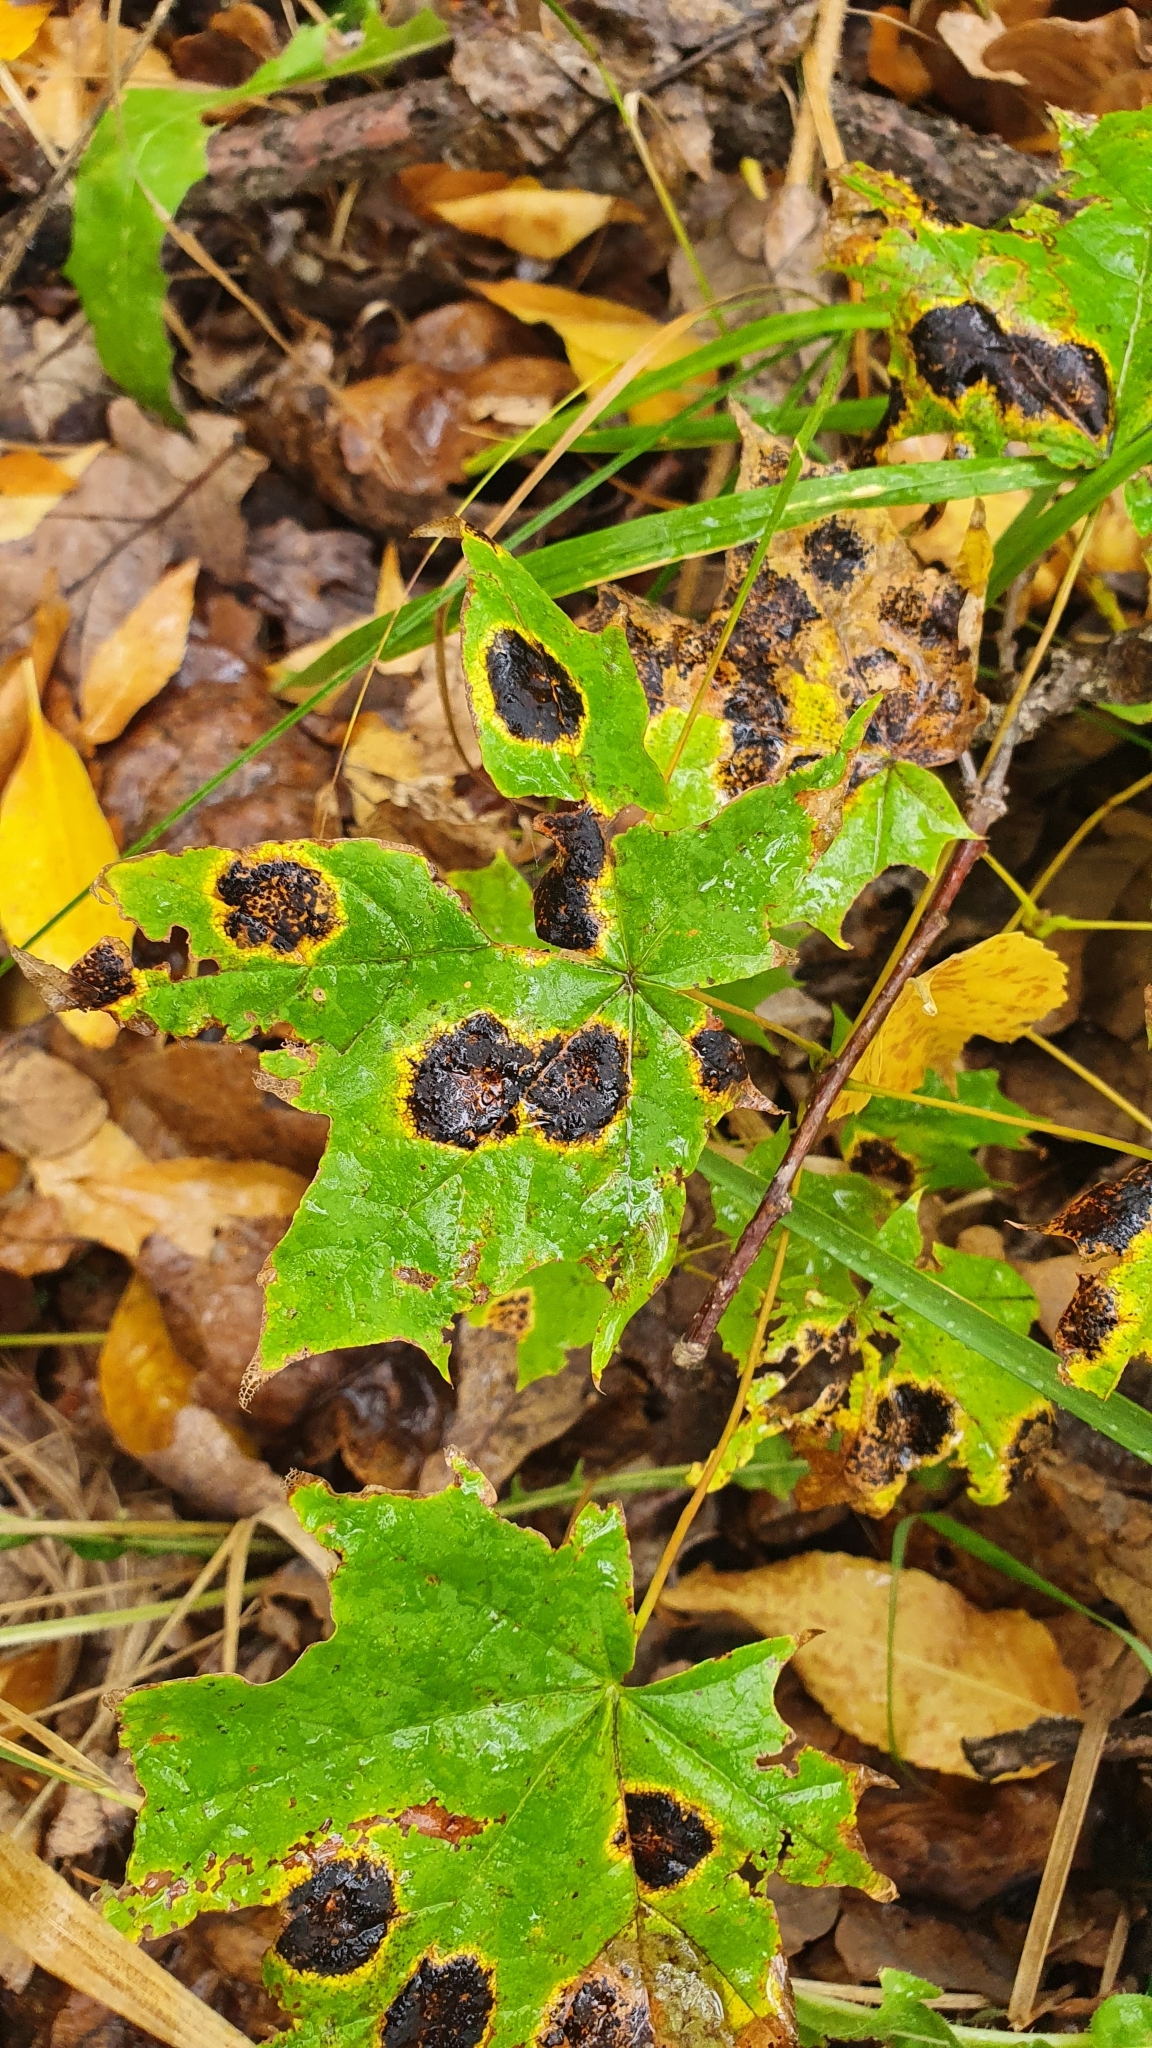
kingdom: Fungi
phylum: Ascomycota
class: Leotiomycetes
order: Rhytismatales
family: Rhytismataceae
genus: Rhytisma
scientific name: Rhytisma acerinum
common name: European tar spot
